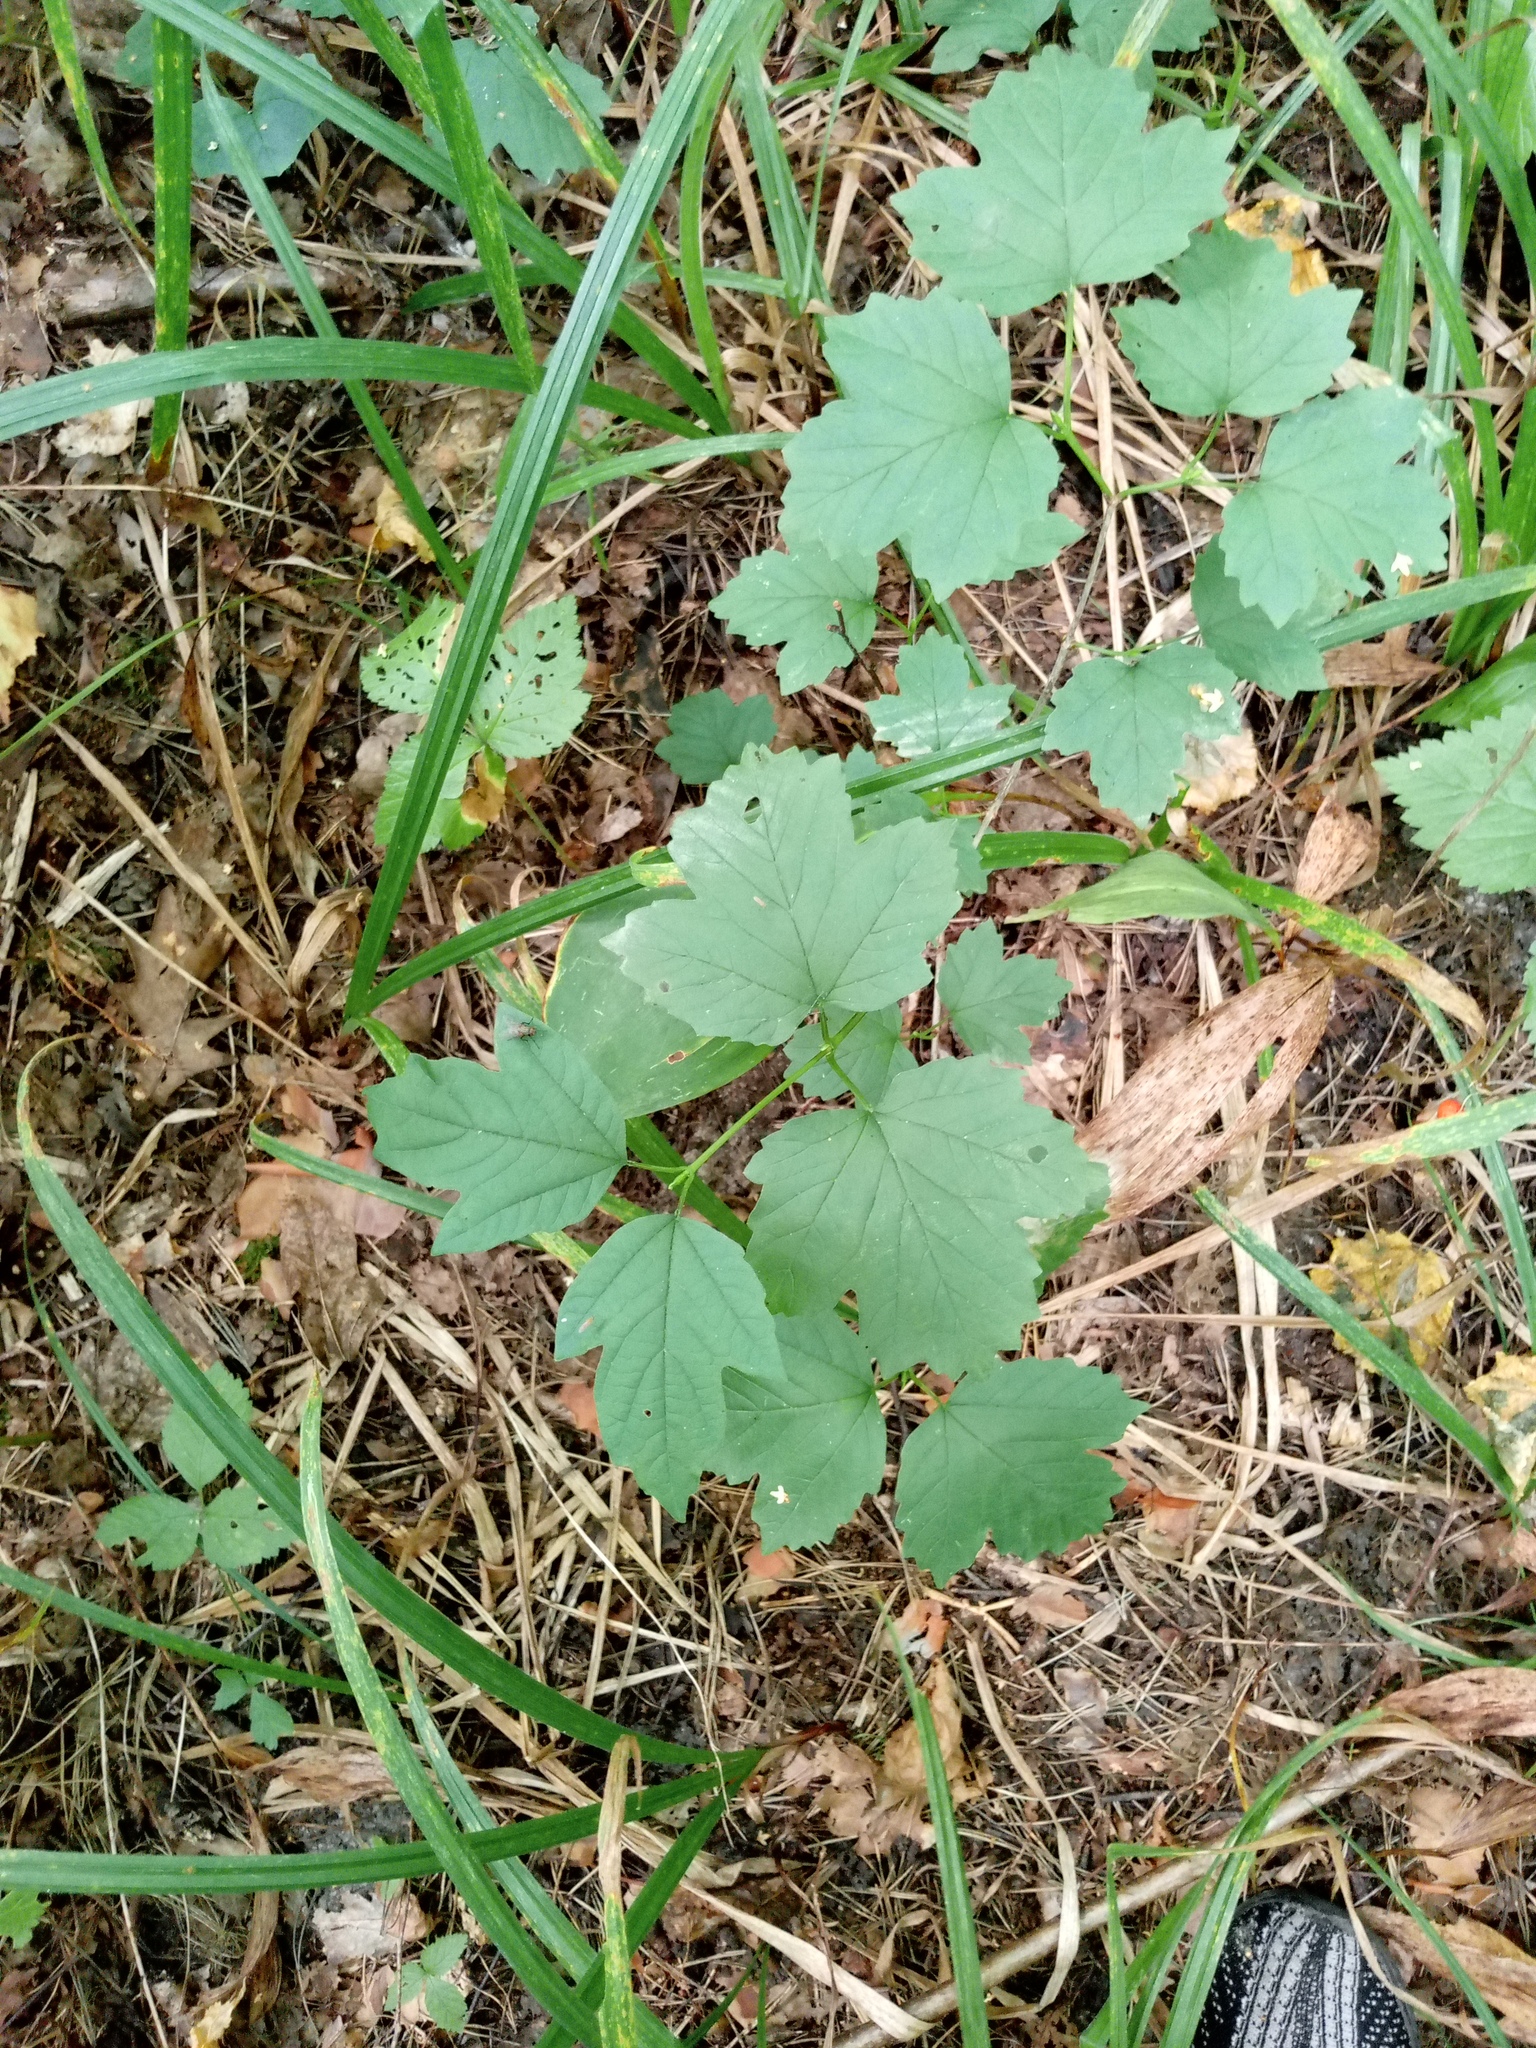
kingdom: Plantae
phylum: Tracheophyta
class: Magnoliopsida
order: Dipsacales
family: Viburnaceae
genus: Viburnum
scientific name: Viburnum opulus
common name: Guelder-rose
